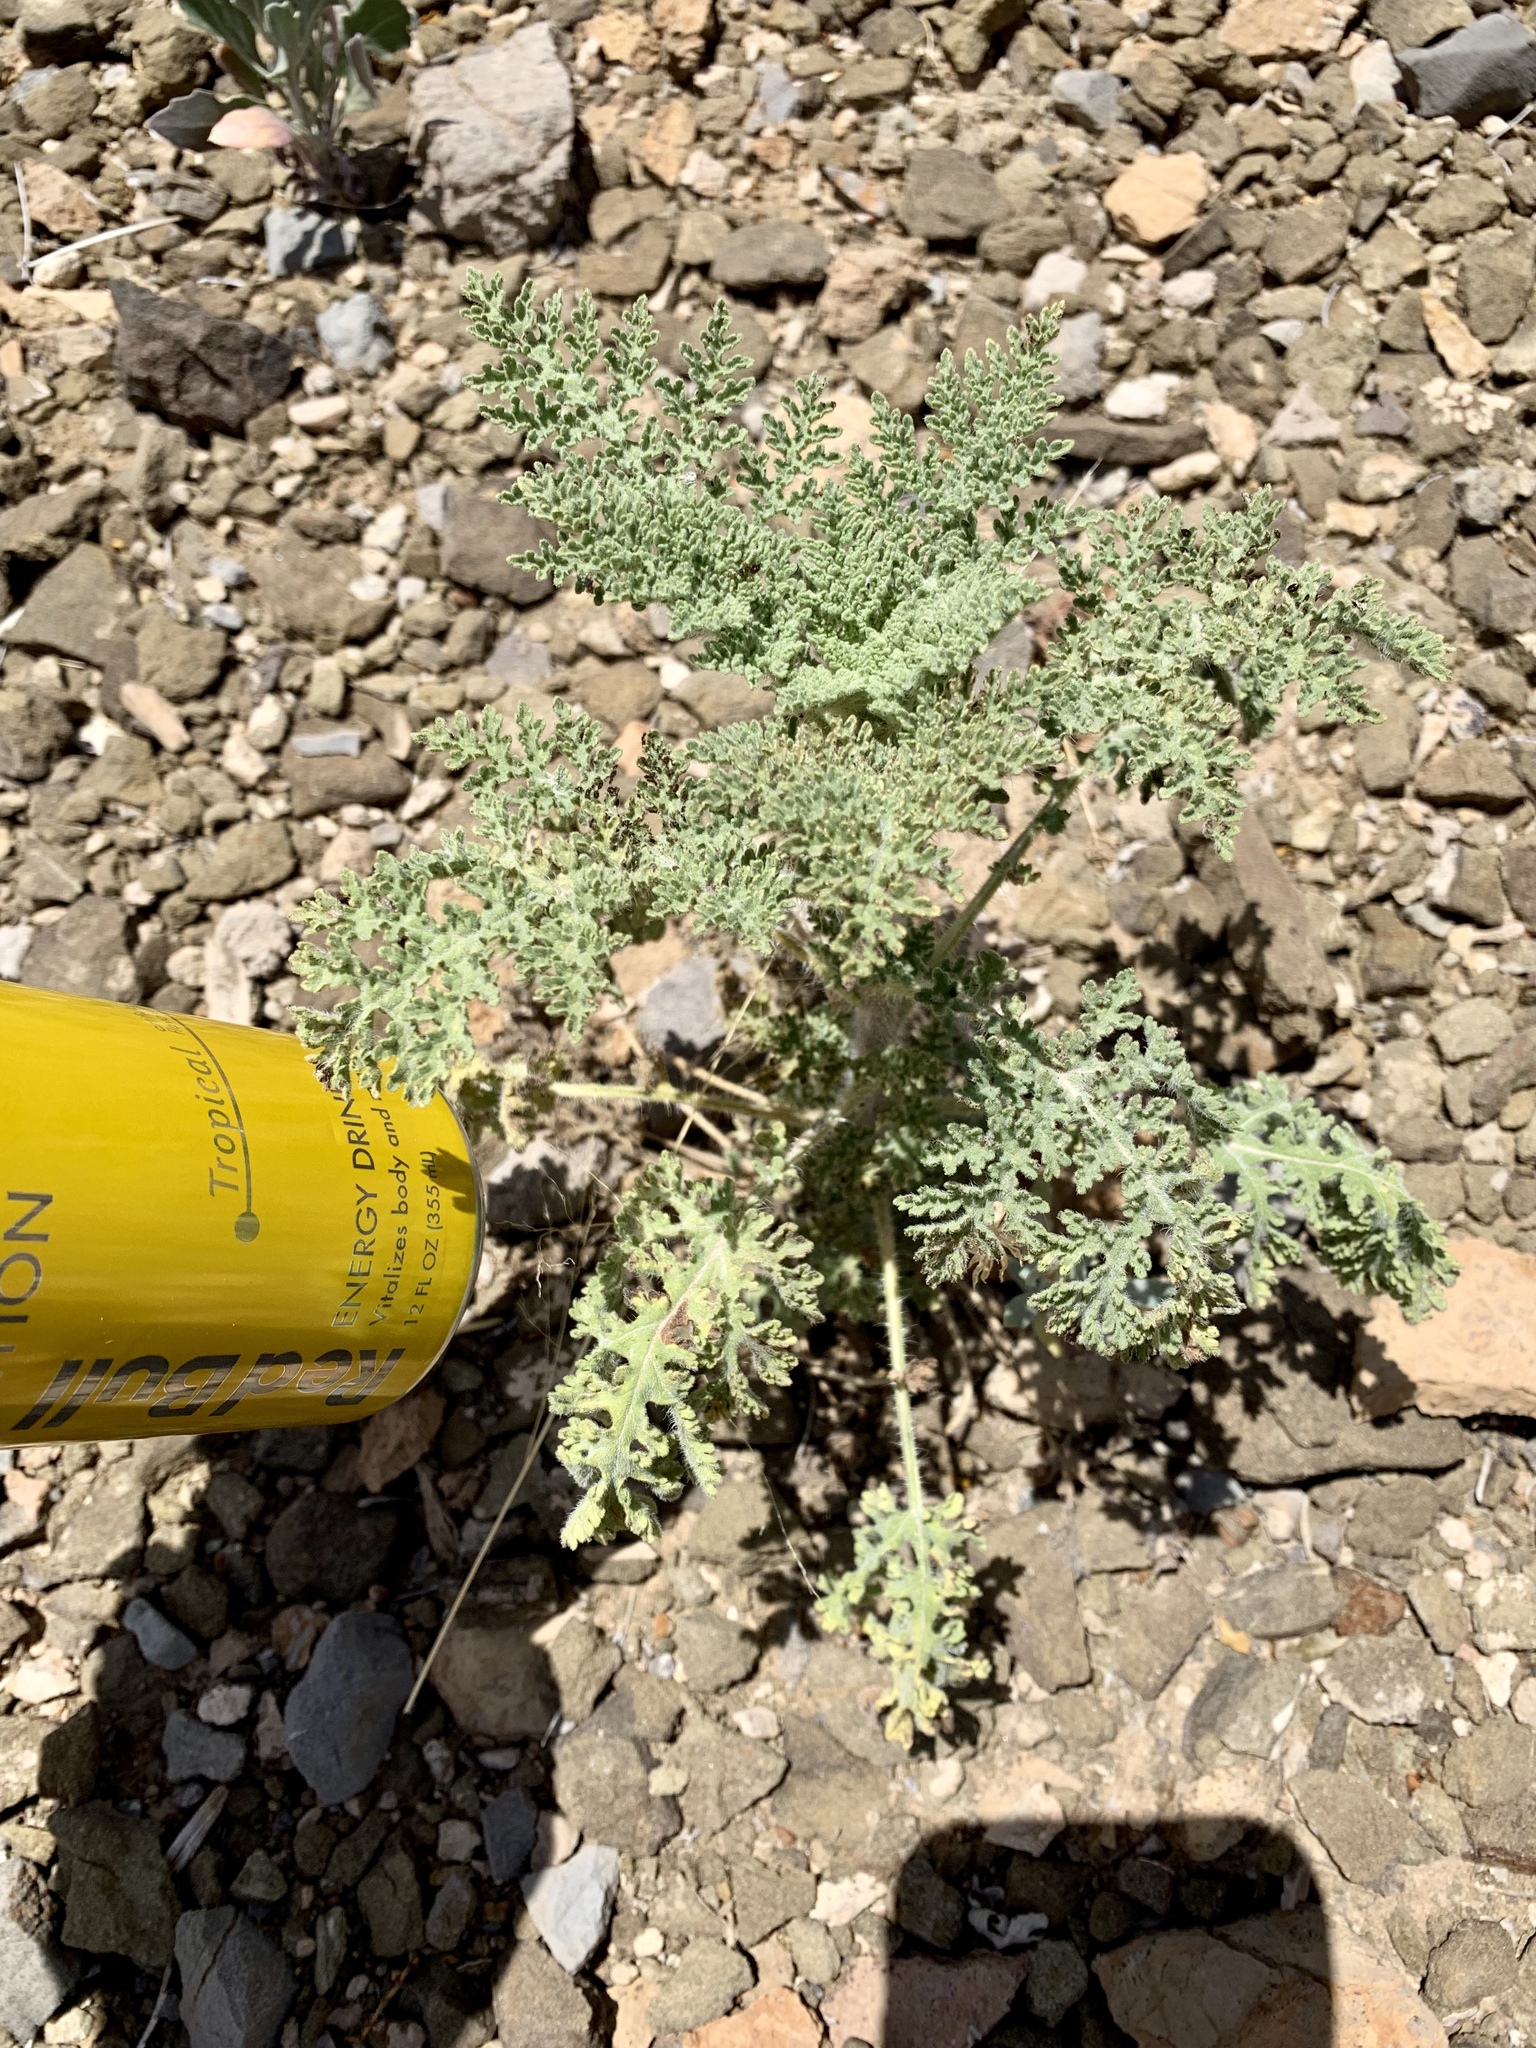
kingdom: Plantae
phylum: Tracheophyta
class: Magnoliopsida
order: Asterales
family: Asteraceae
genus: Hedosyne
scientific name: Hedosyne ambrosiifolia
